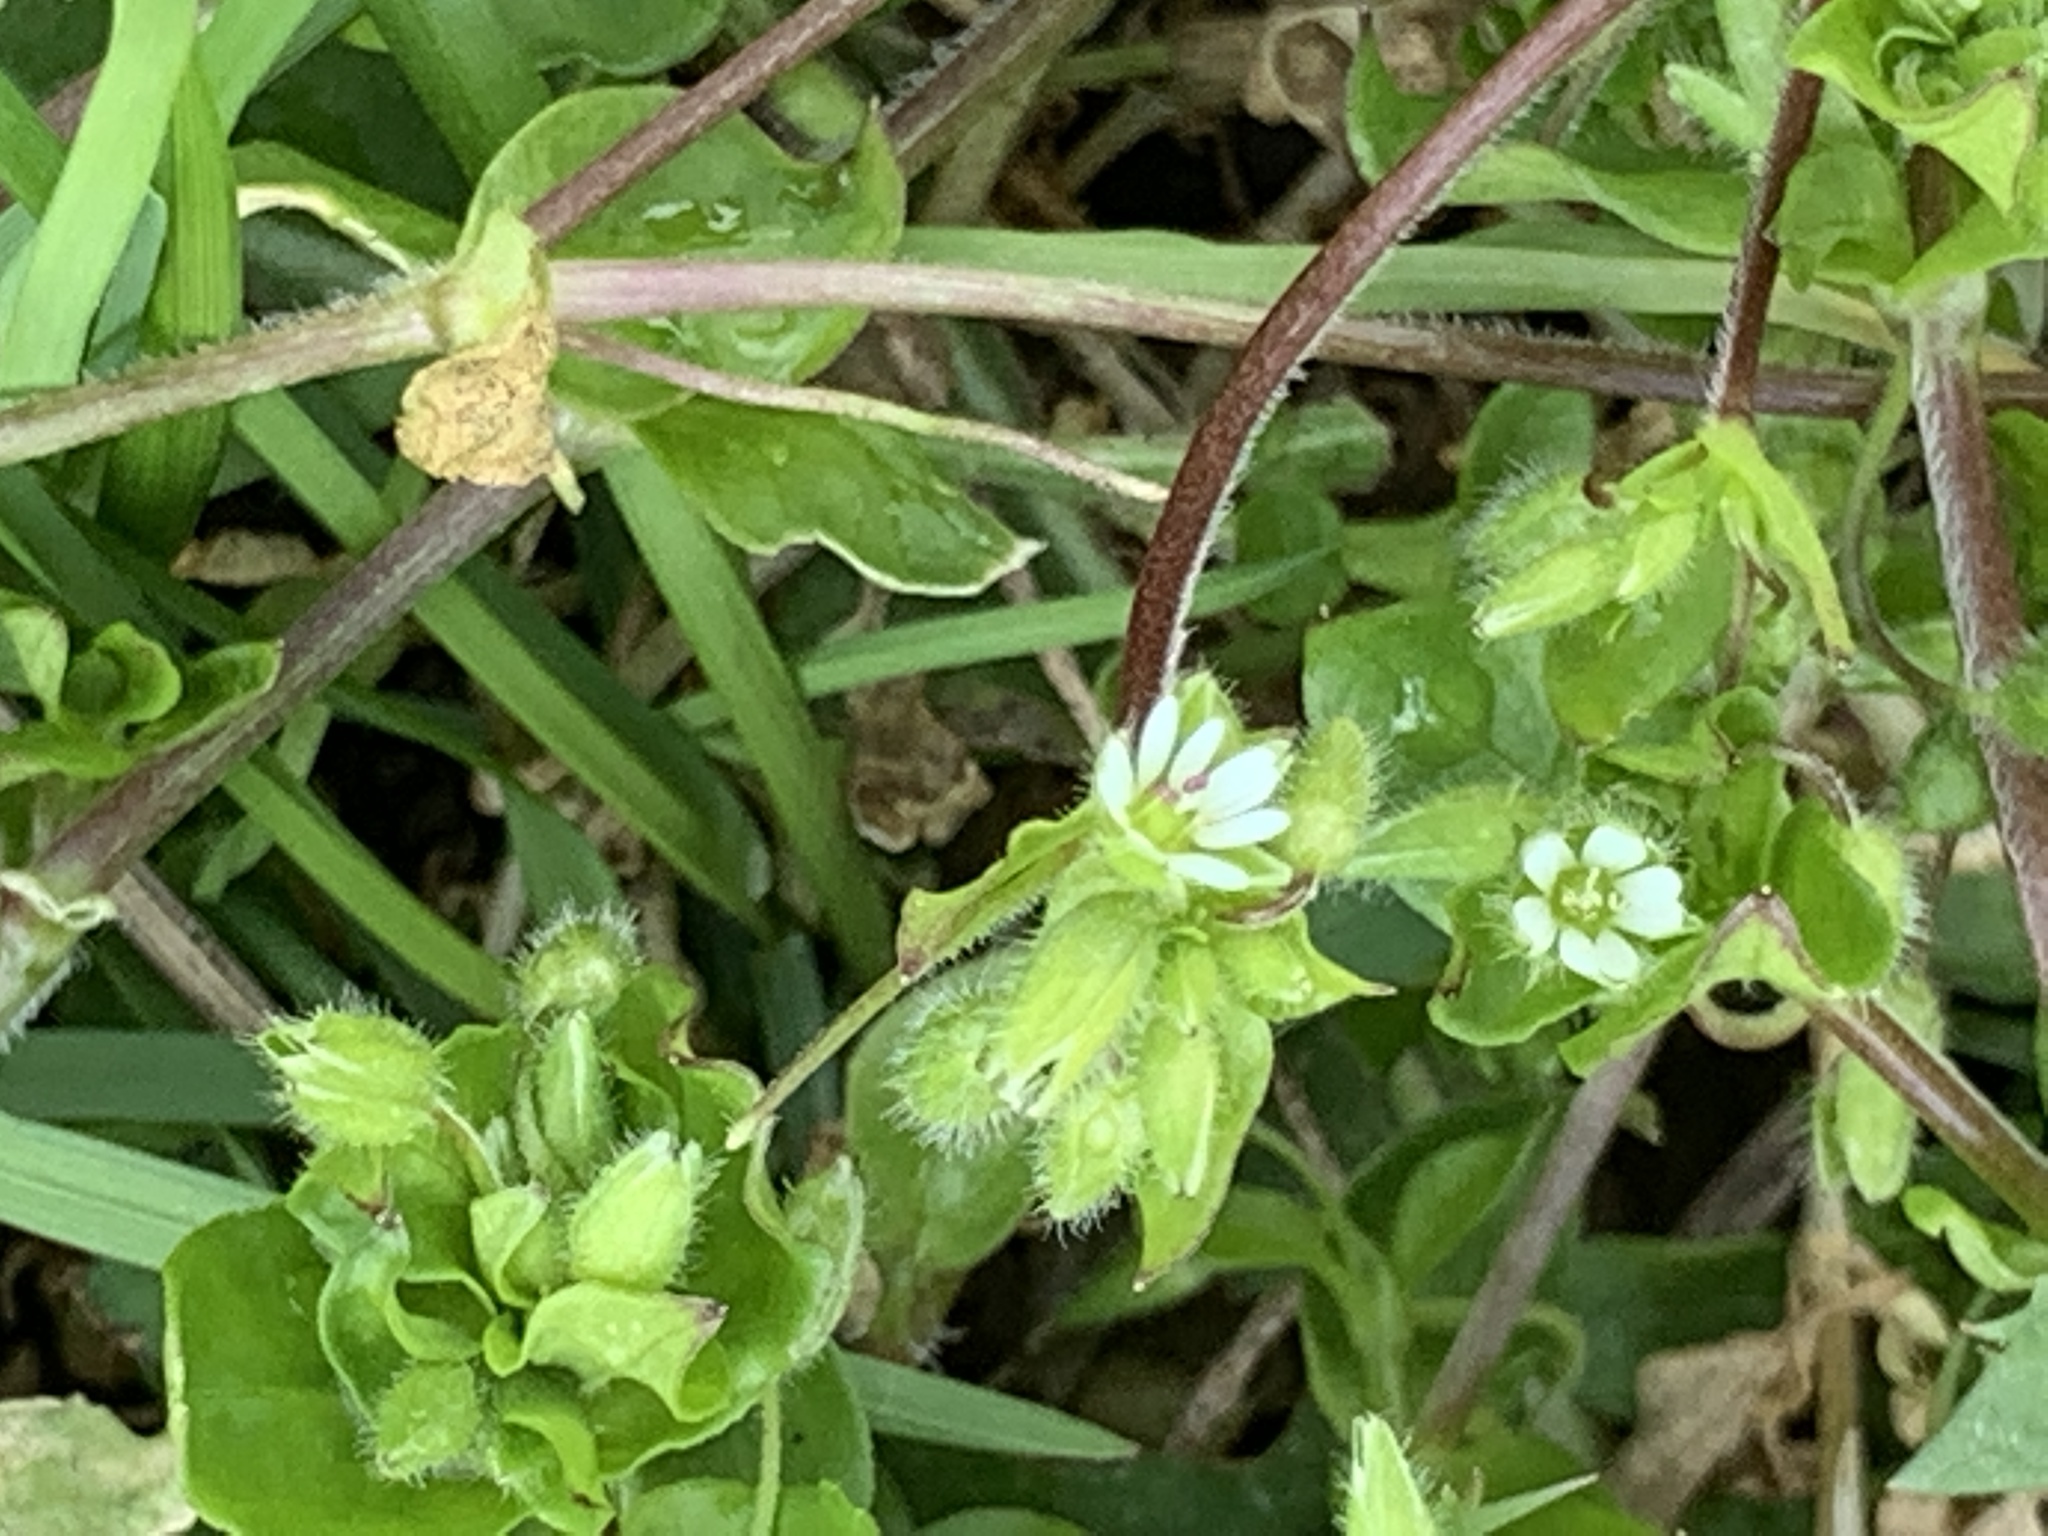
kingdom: Plantae
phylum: Tracheophyta
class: Magnoliopsida
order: Caryophyllales
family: Caryophyllaceae
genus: Stellaria
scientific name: Stellaria media
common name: Common chickweed
